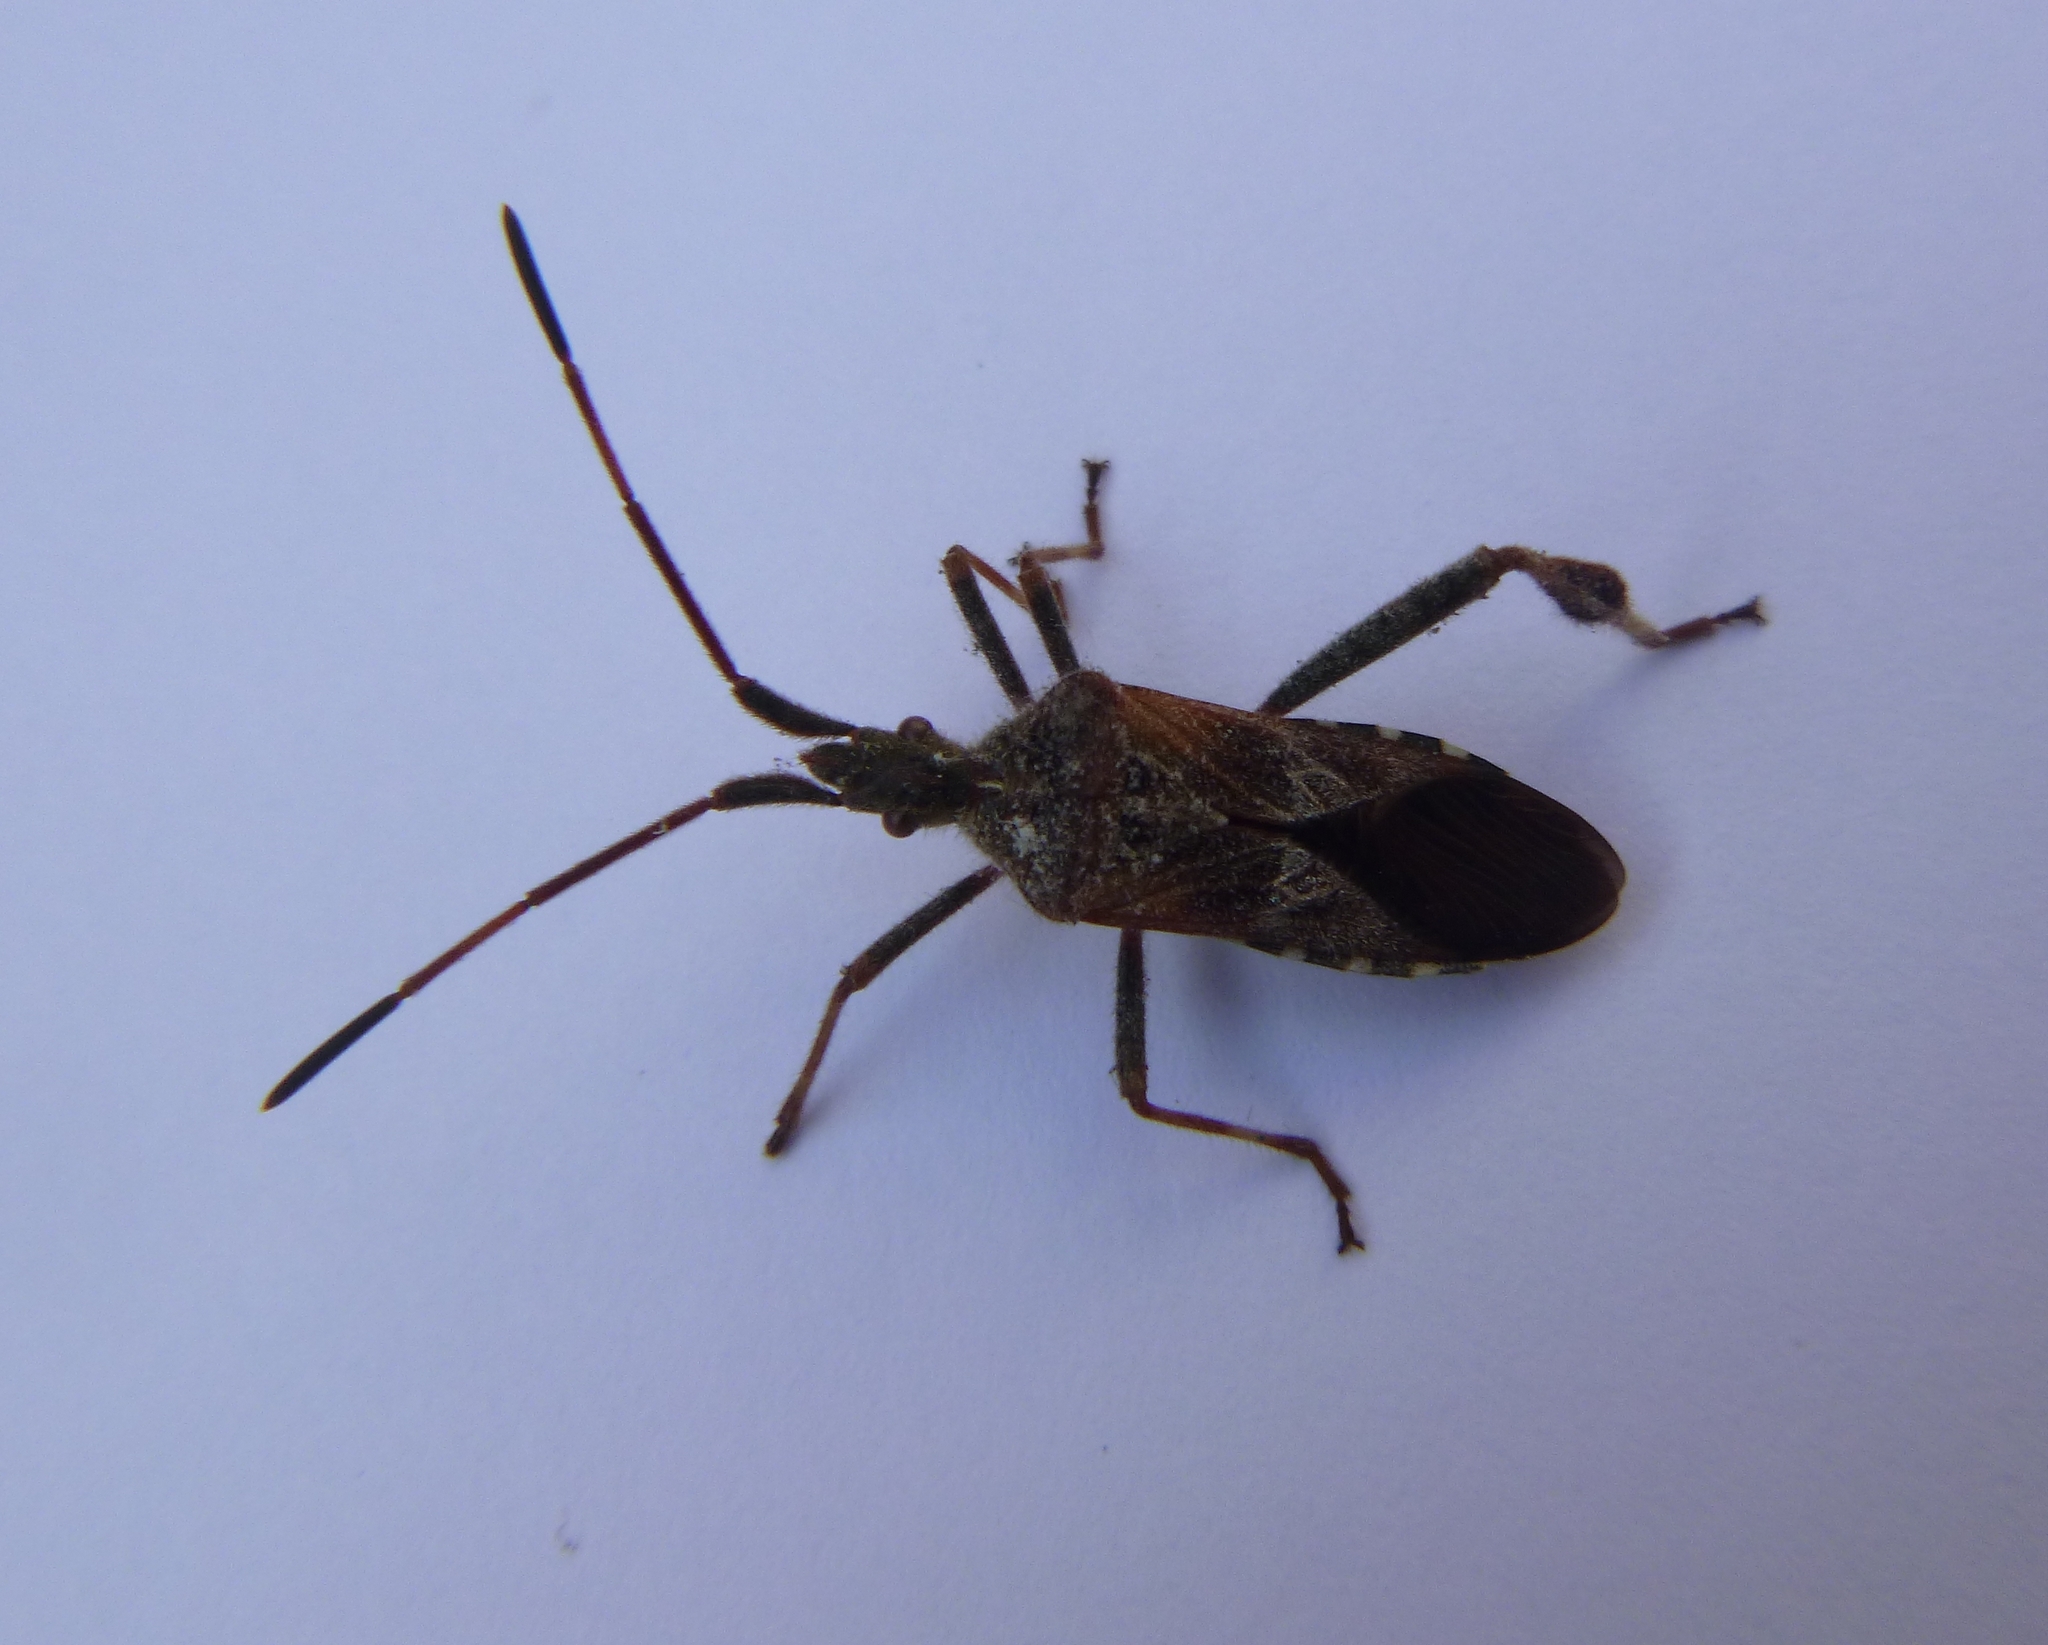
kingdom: Animalia
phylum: Arthropoda
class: Insecta
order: Hemiptera
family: Coreidae
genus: Leptoglossus
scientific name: Leptoglossus occidentalis
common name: Western conifer-seed bug
